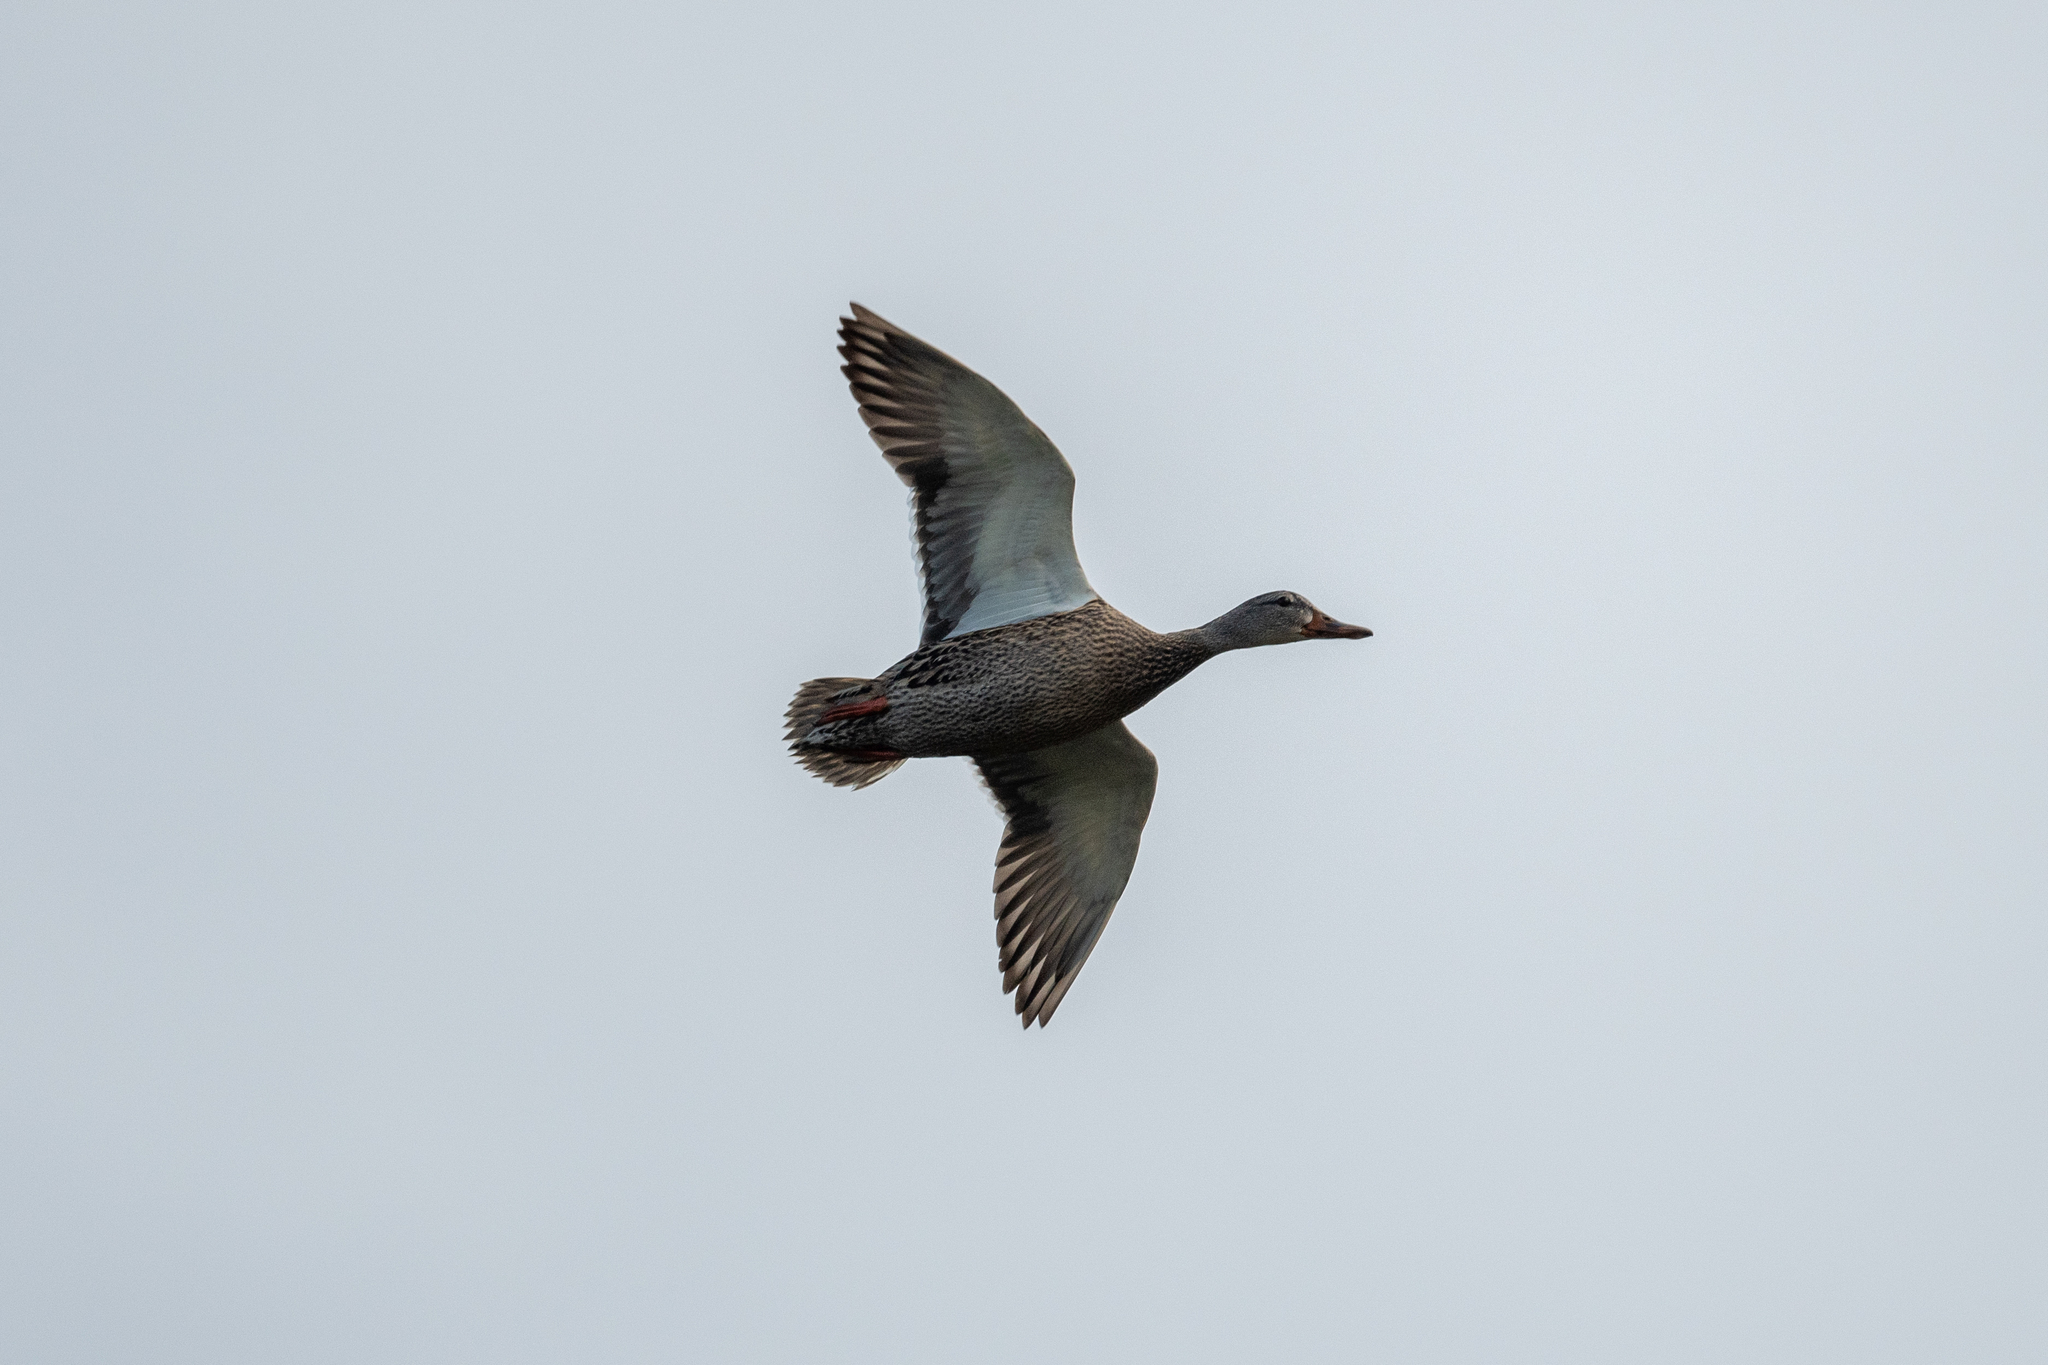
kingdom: Animalia
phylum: Chordata
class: Aves
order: Anseriformes
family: Anatidae
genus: Anas
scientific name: Anas platyrhynchos
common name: Mallard
